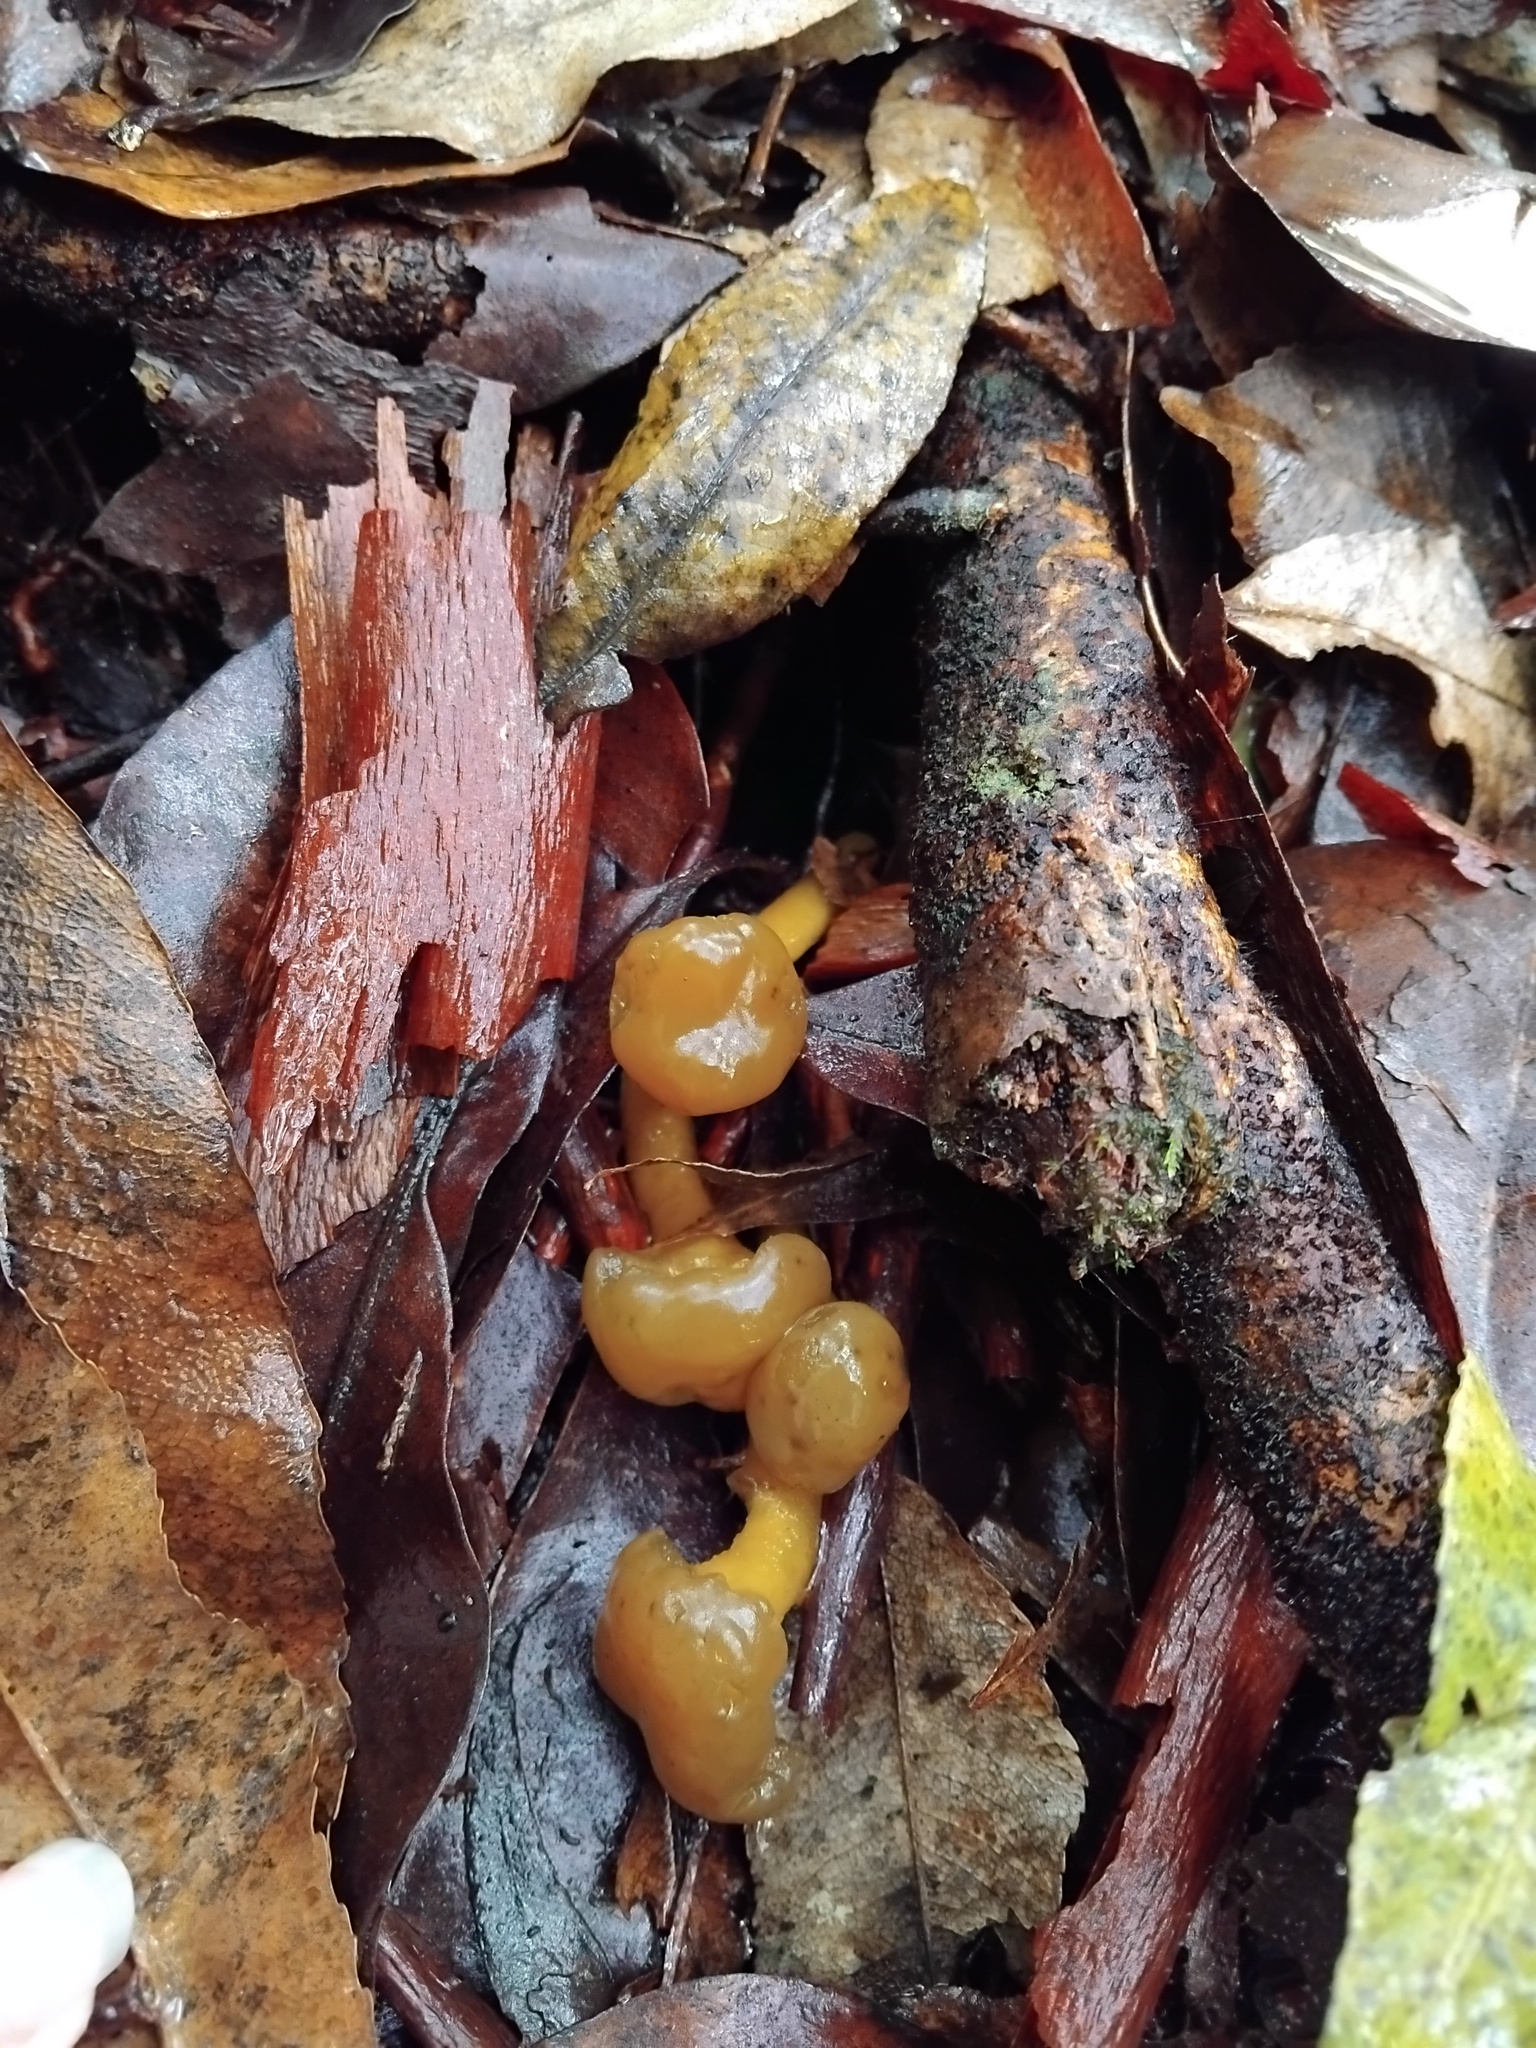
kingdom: Fungi
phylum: Ascomycota
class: Leotiomycetes
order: Leotiales
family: Leotiaceae
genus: Leotia
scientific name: Leotia lubrica
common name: Jellybaby
